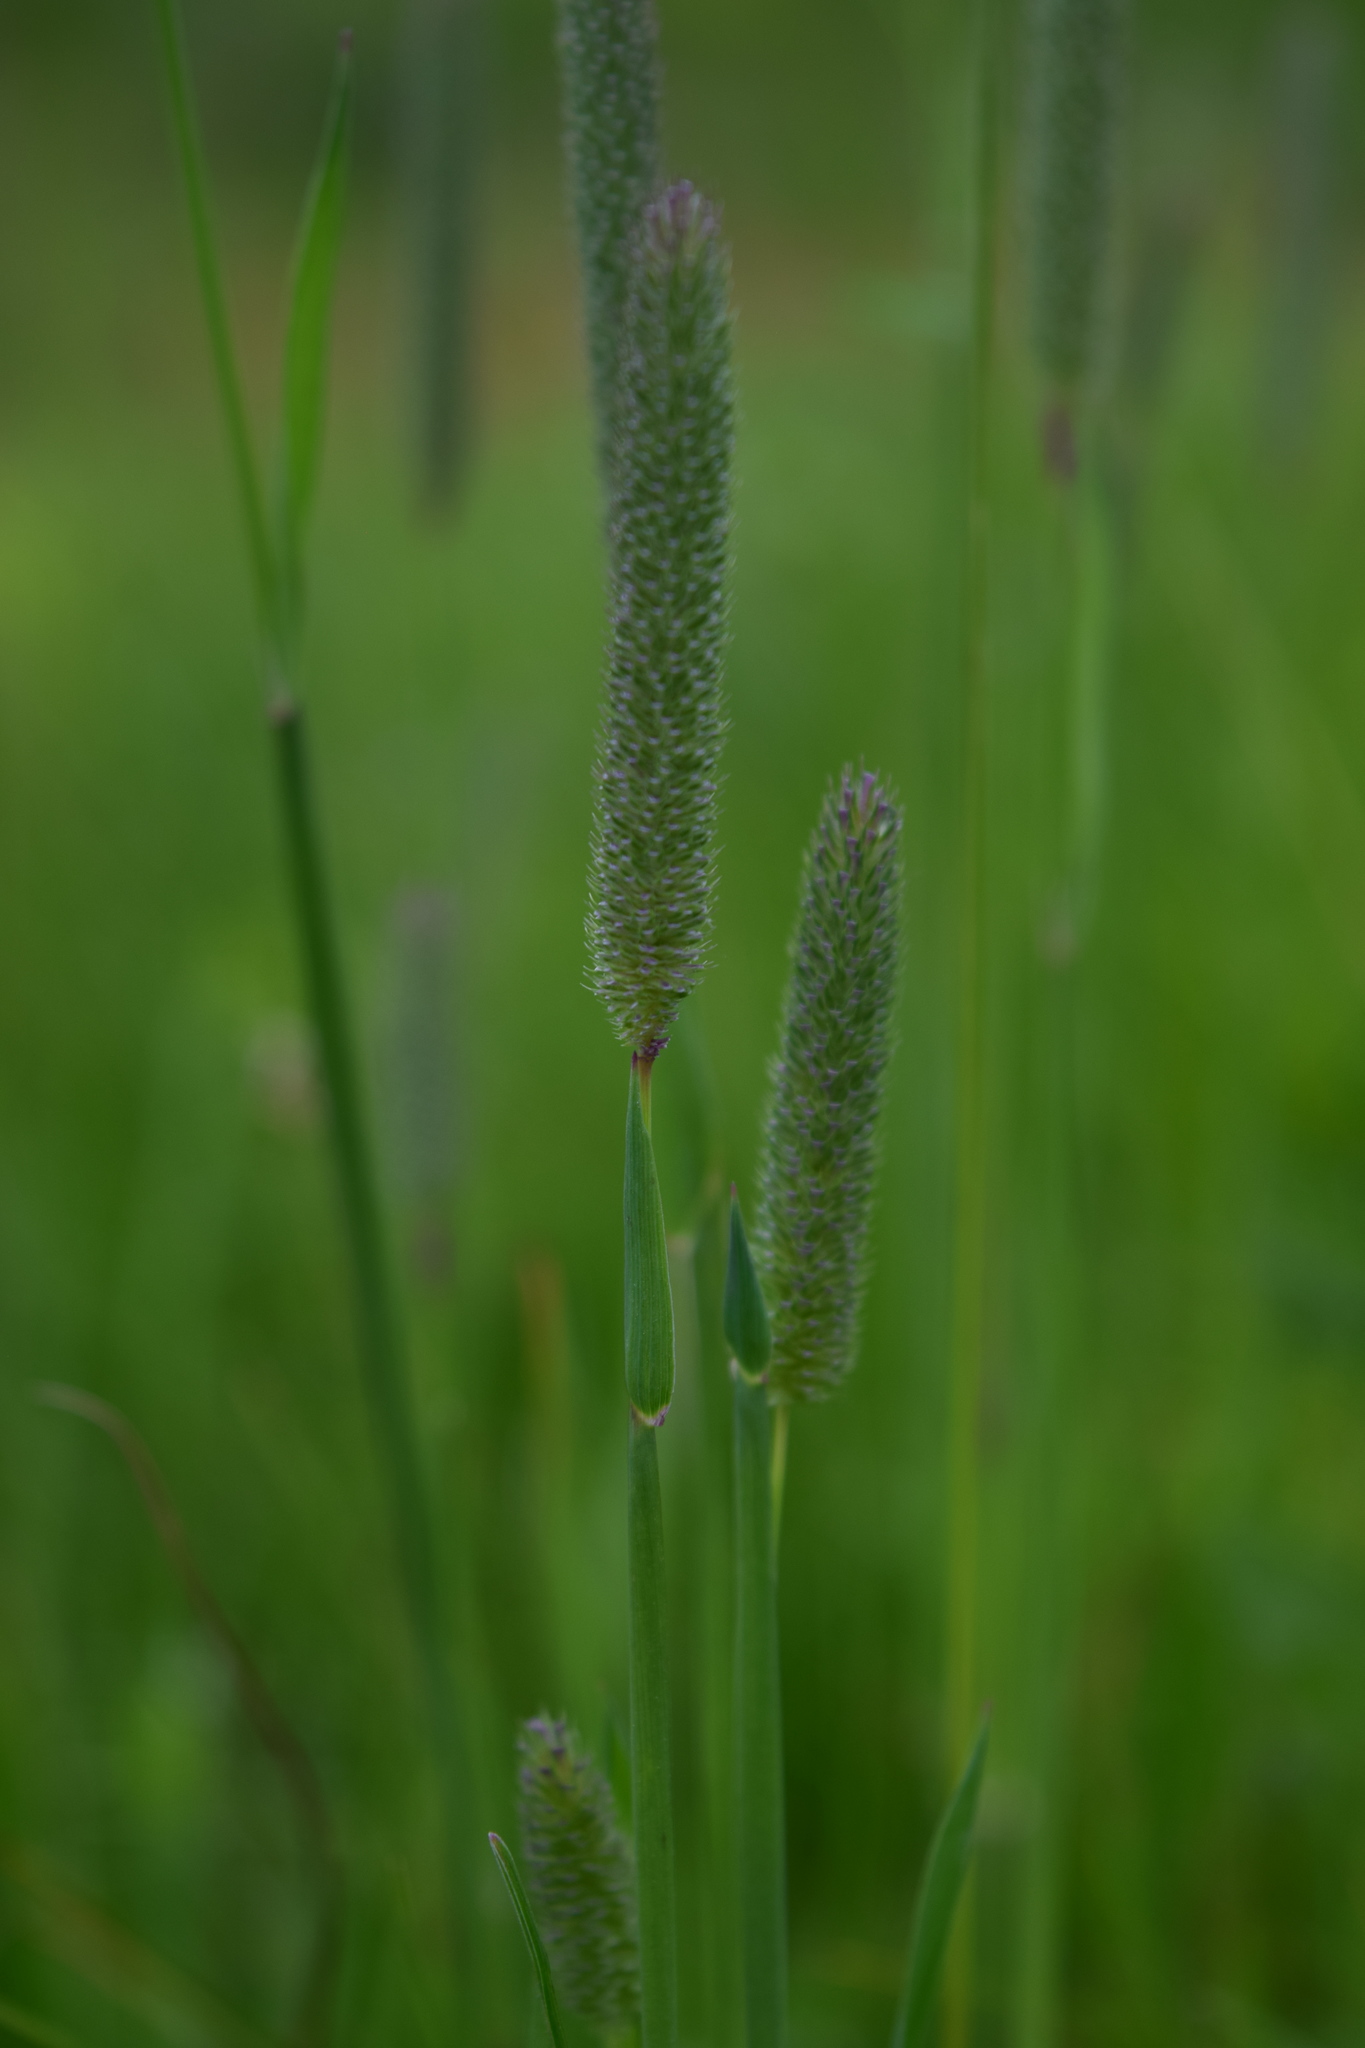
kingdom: Plantae
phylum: Tracheophyta
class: Liliopsida
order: Poales
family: Poaceae
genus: Phleum
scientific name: Phleum pratense
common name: Timothy grass
